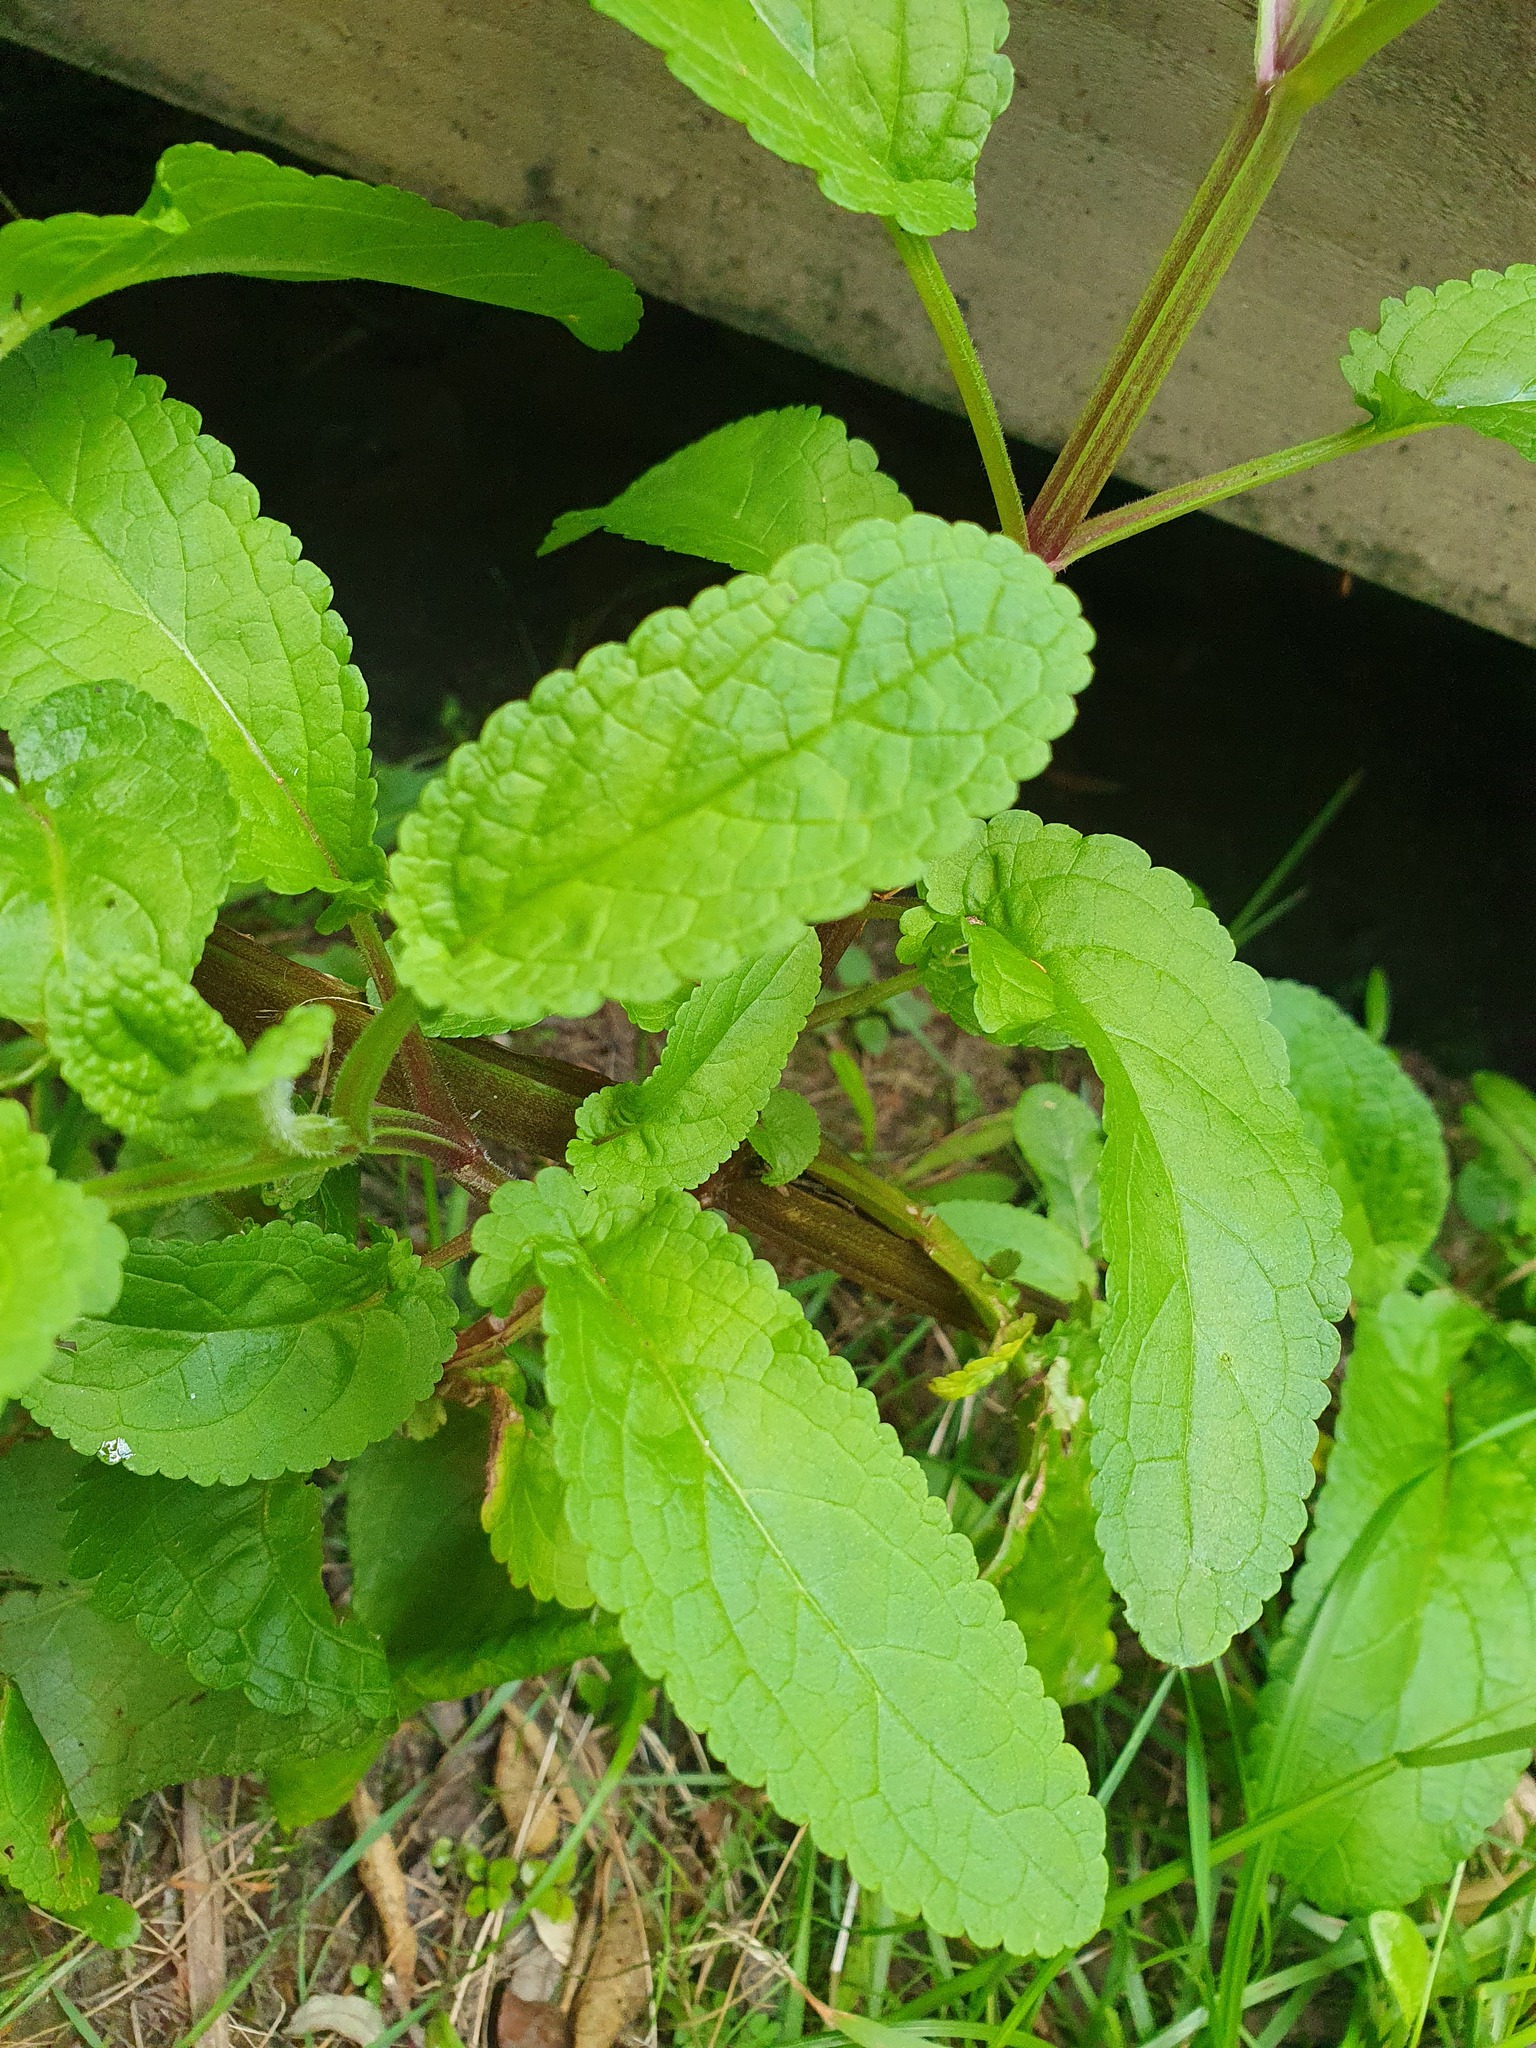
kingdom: Plantae
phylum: Tracheophyta
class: Magnoliopsida
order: Lamiales
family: Scrophulariaceae
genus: Scrophularia
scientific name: Scrophularia auriculata
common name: Water betony
